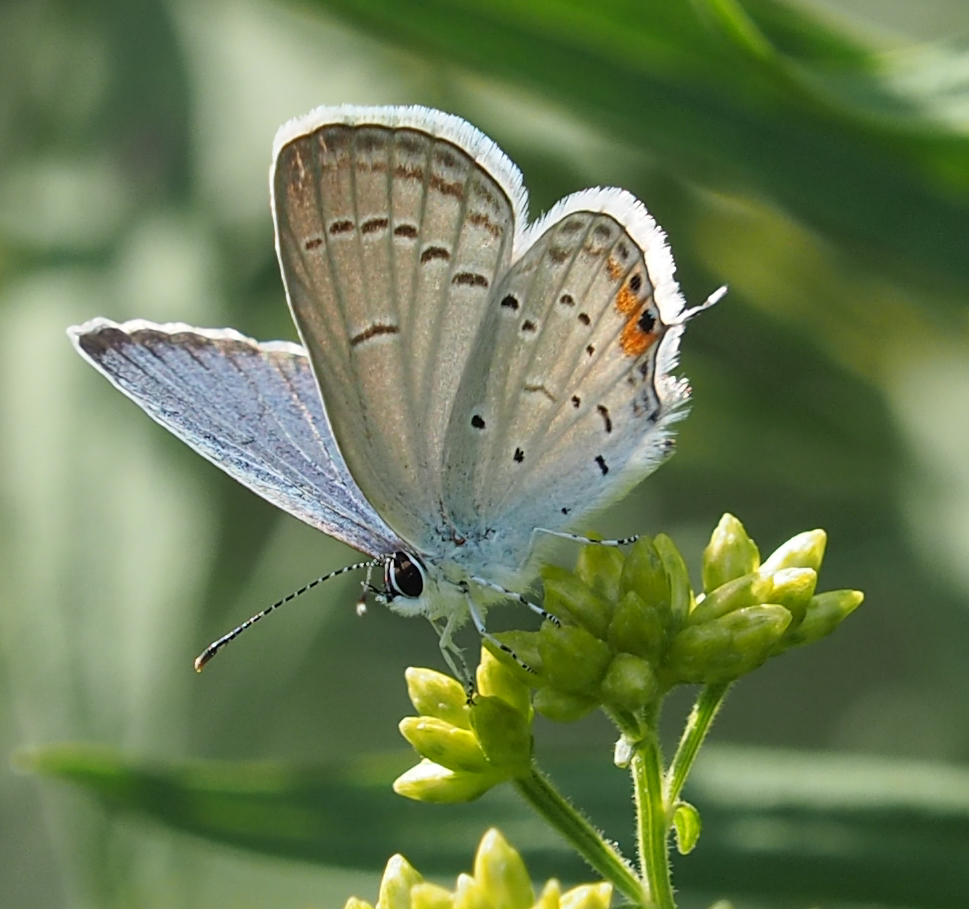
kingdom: Animalia
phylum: Arthropoda
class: Insecta
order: Lepidoptera
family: Lycaenidae
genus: Elkalyce
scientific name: Elkalyce comyntas
